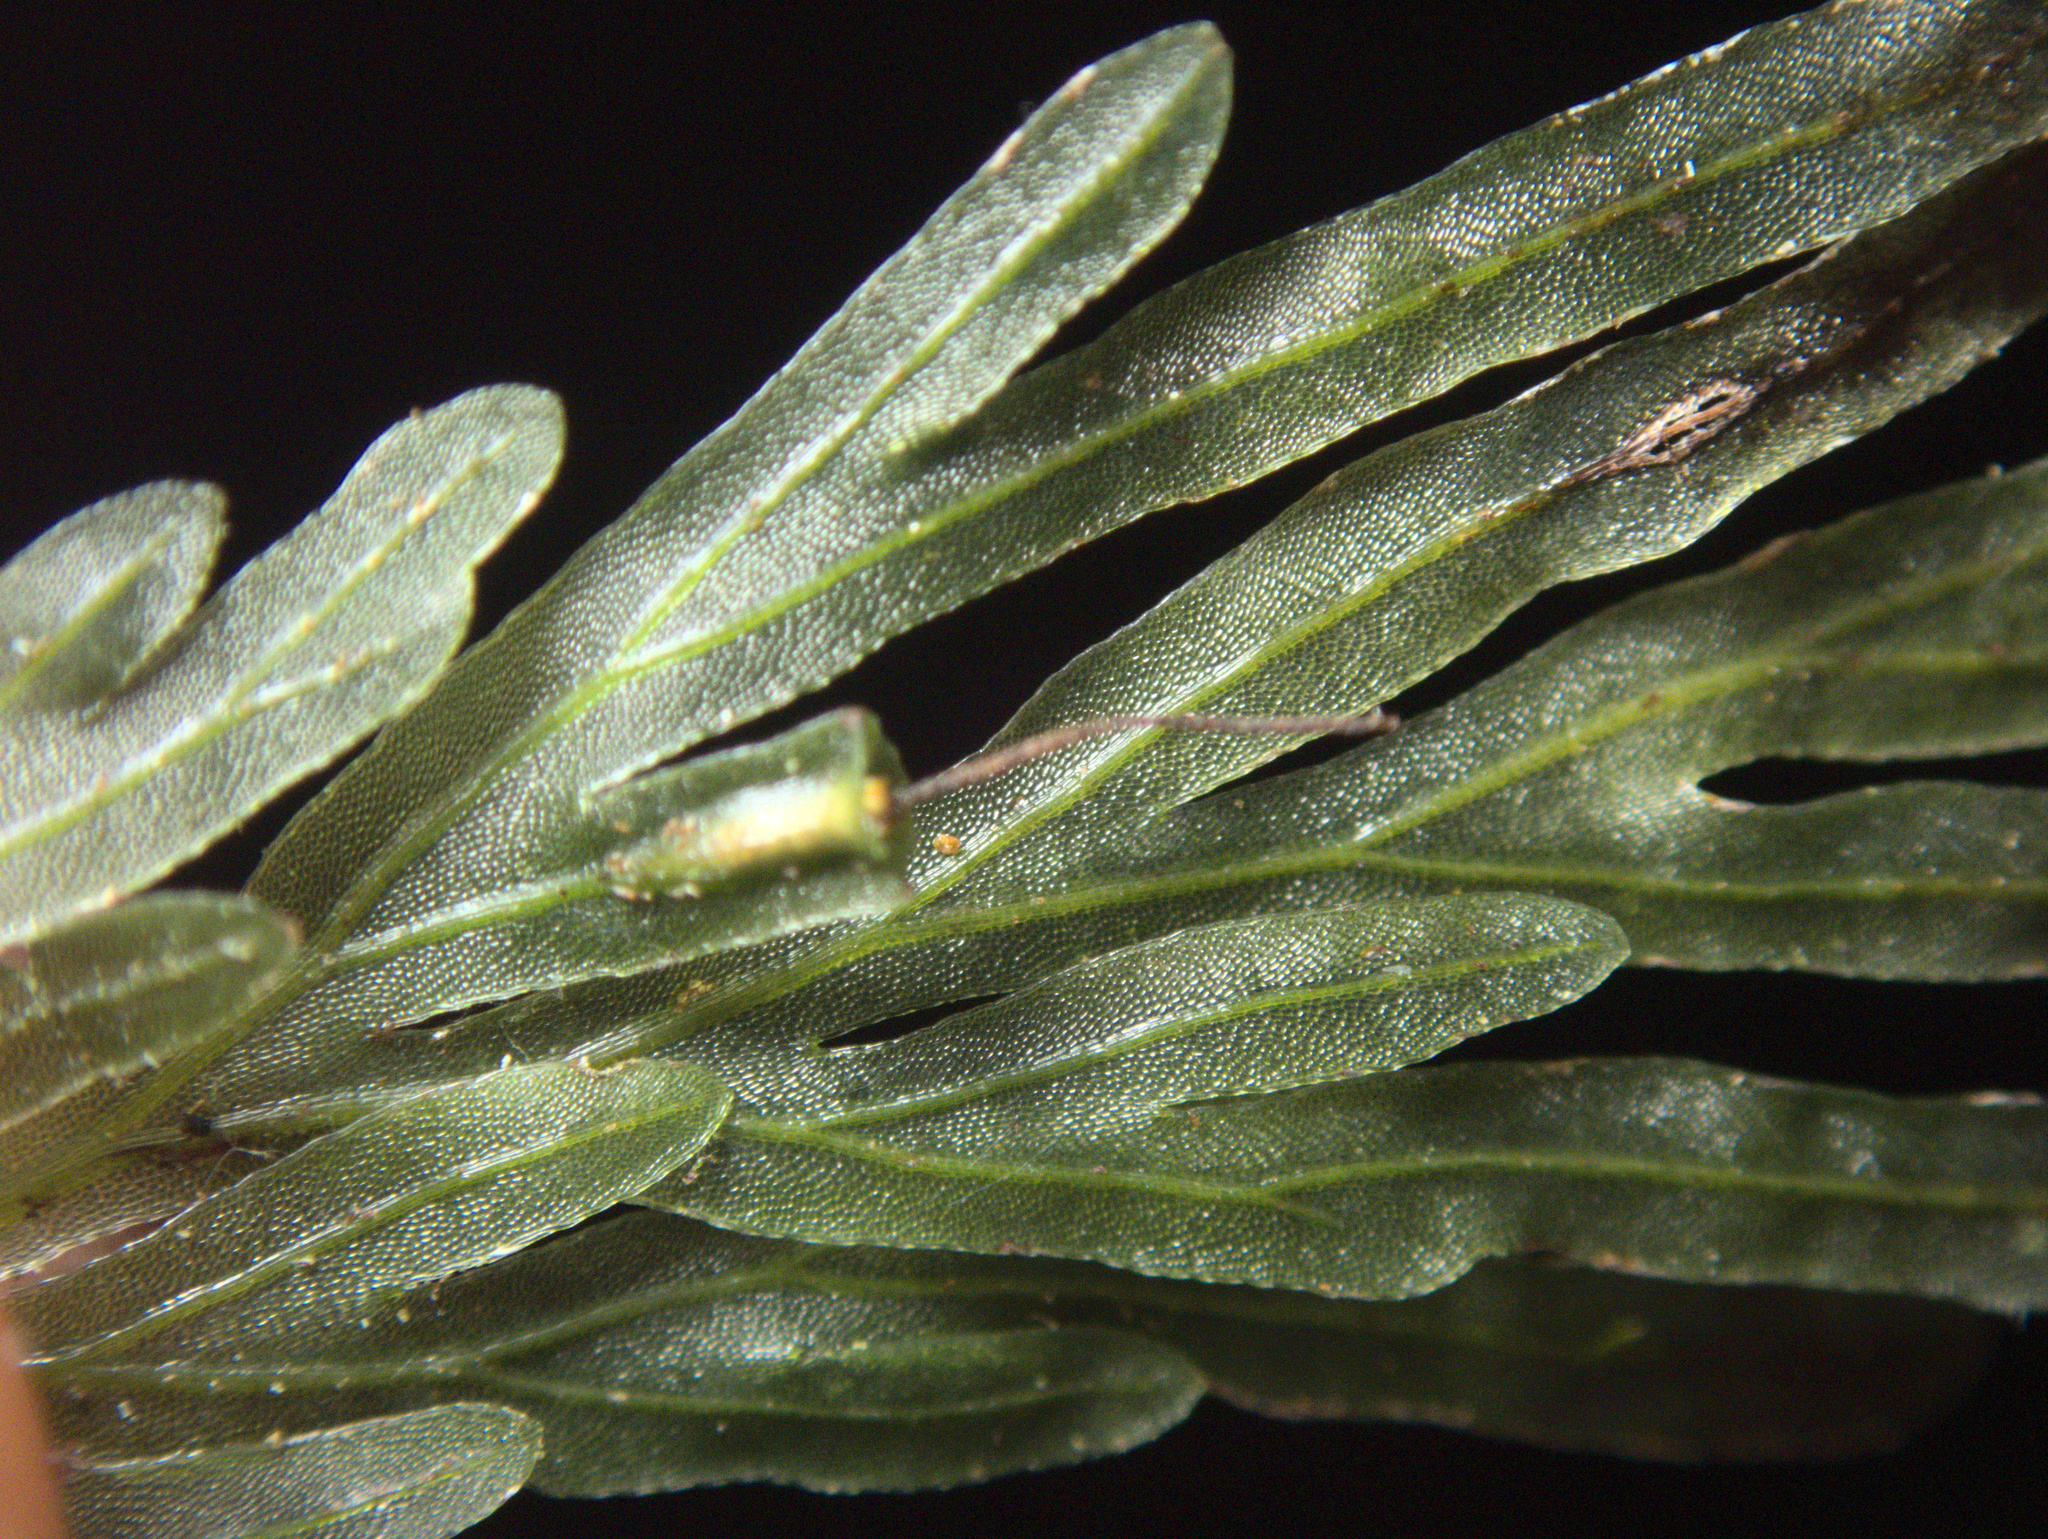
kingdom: Plantae
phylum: Tracheophyta
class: Polypodiopsida
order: Hymenophyllales
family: Hymenophyllaceae
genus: Polyphlebium
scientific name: Polyphlebium endlicherianum
